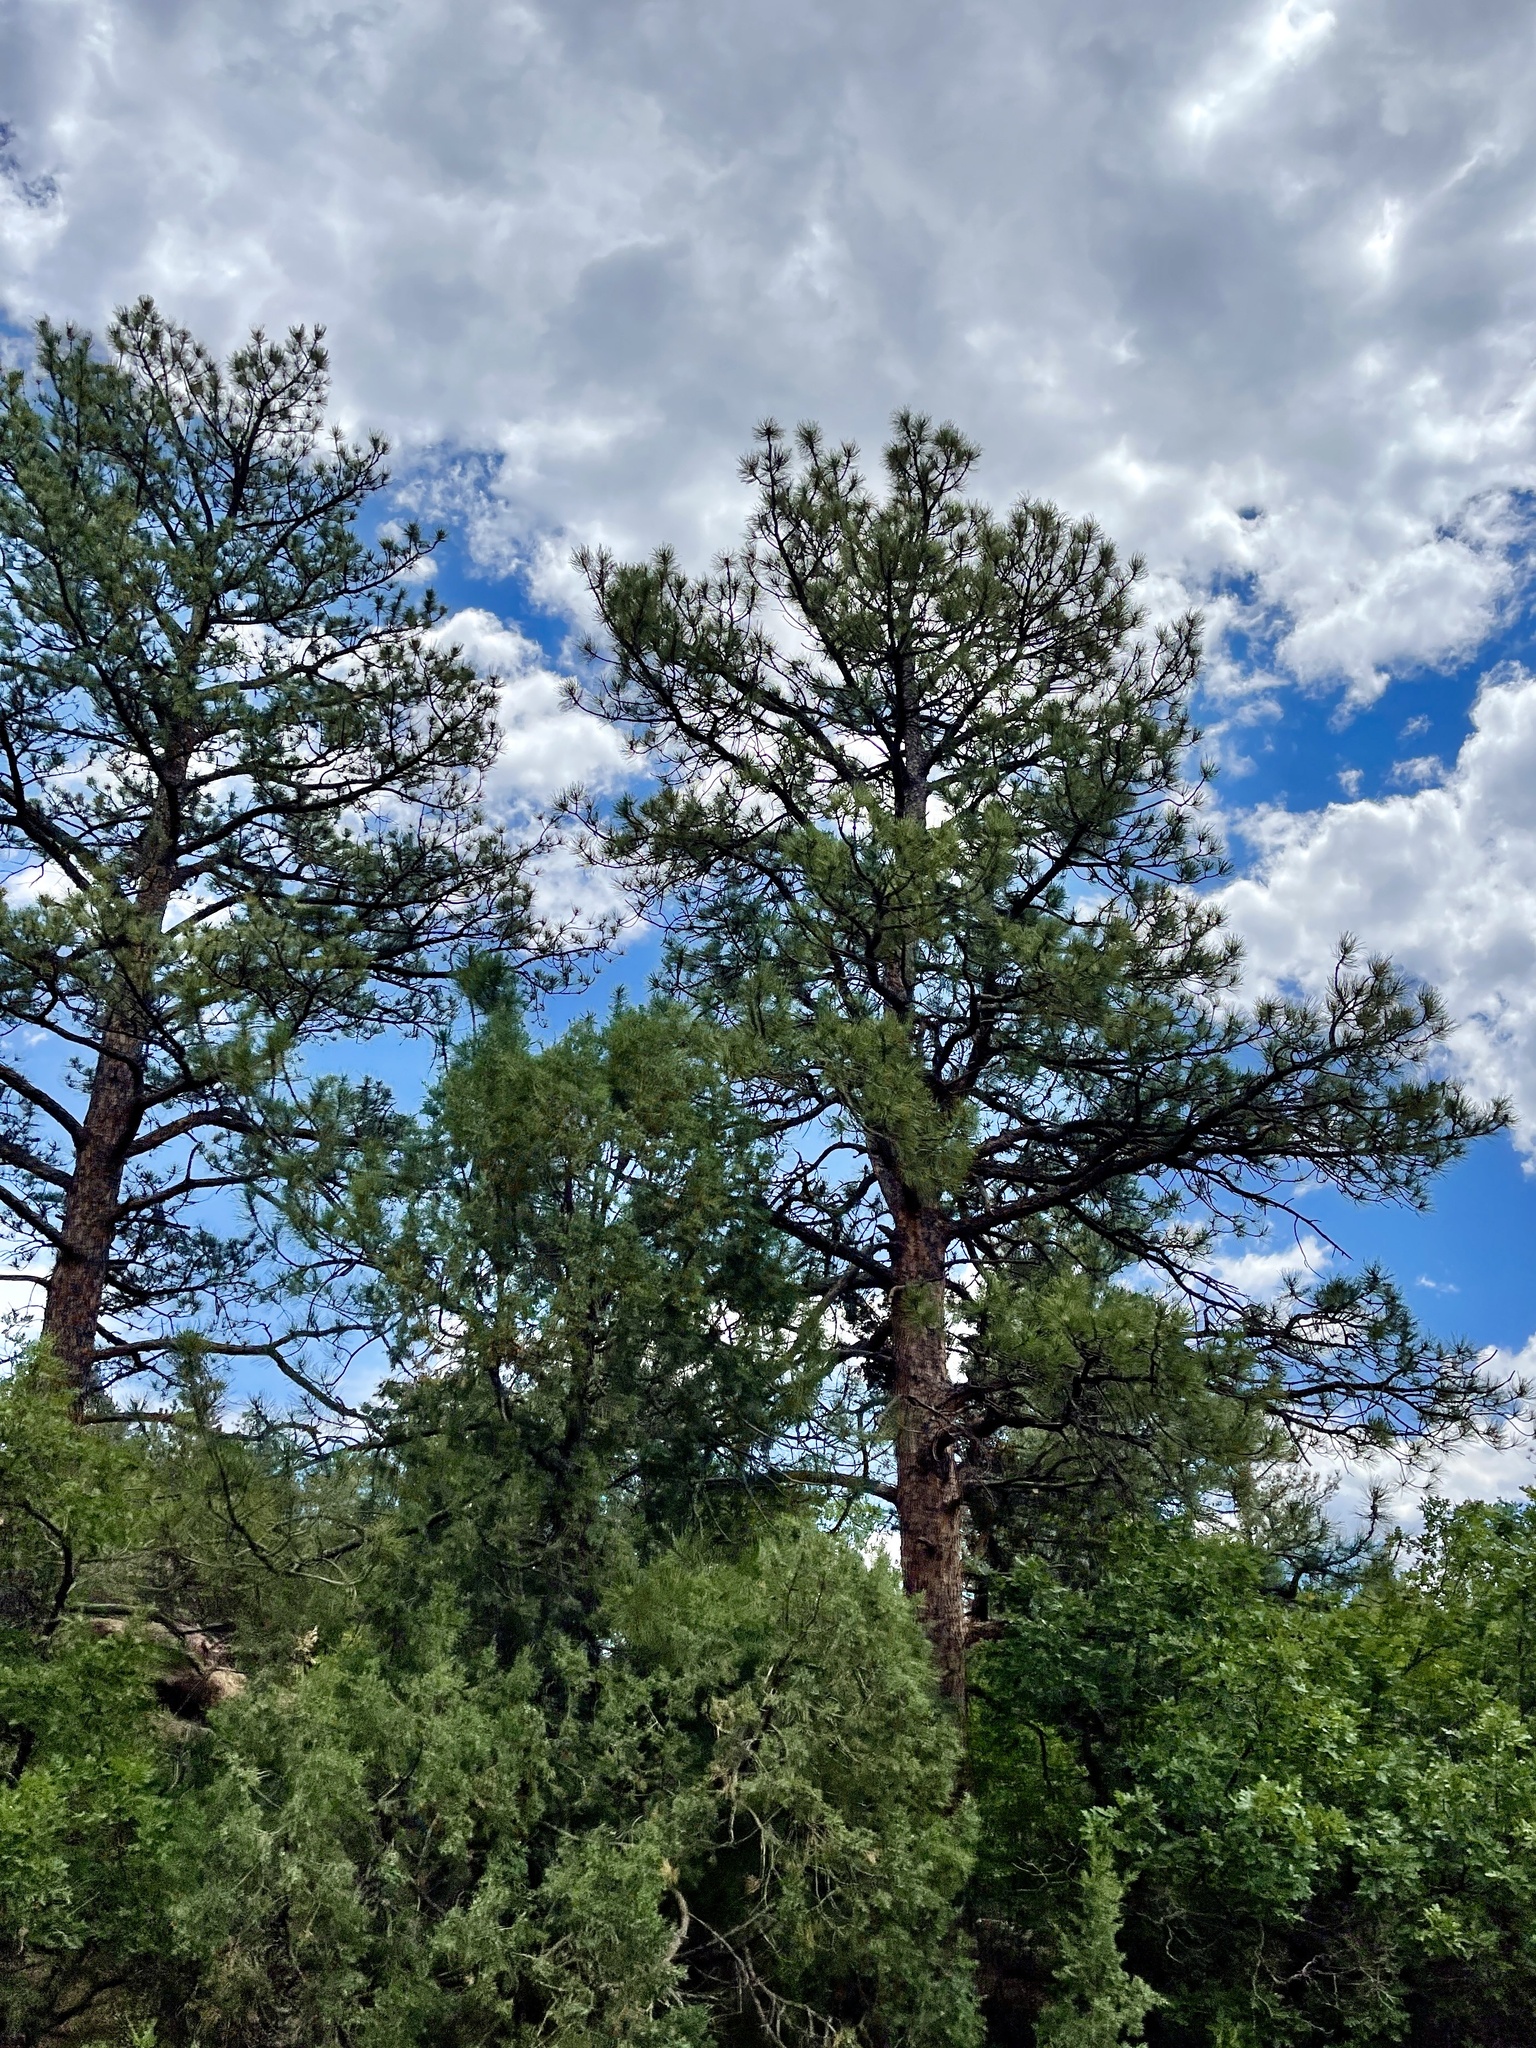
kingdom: Plantae
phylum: Tracheophyta
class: Pinopsida
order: Pinales
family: Pinaceae
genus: Pinus
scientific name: Pinus ponderosa
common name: Western yellow-pine
